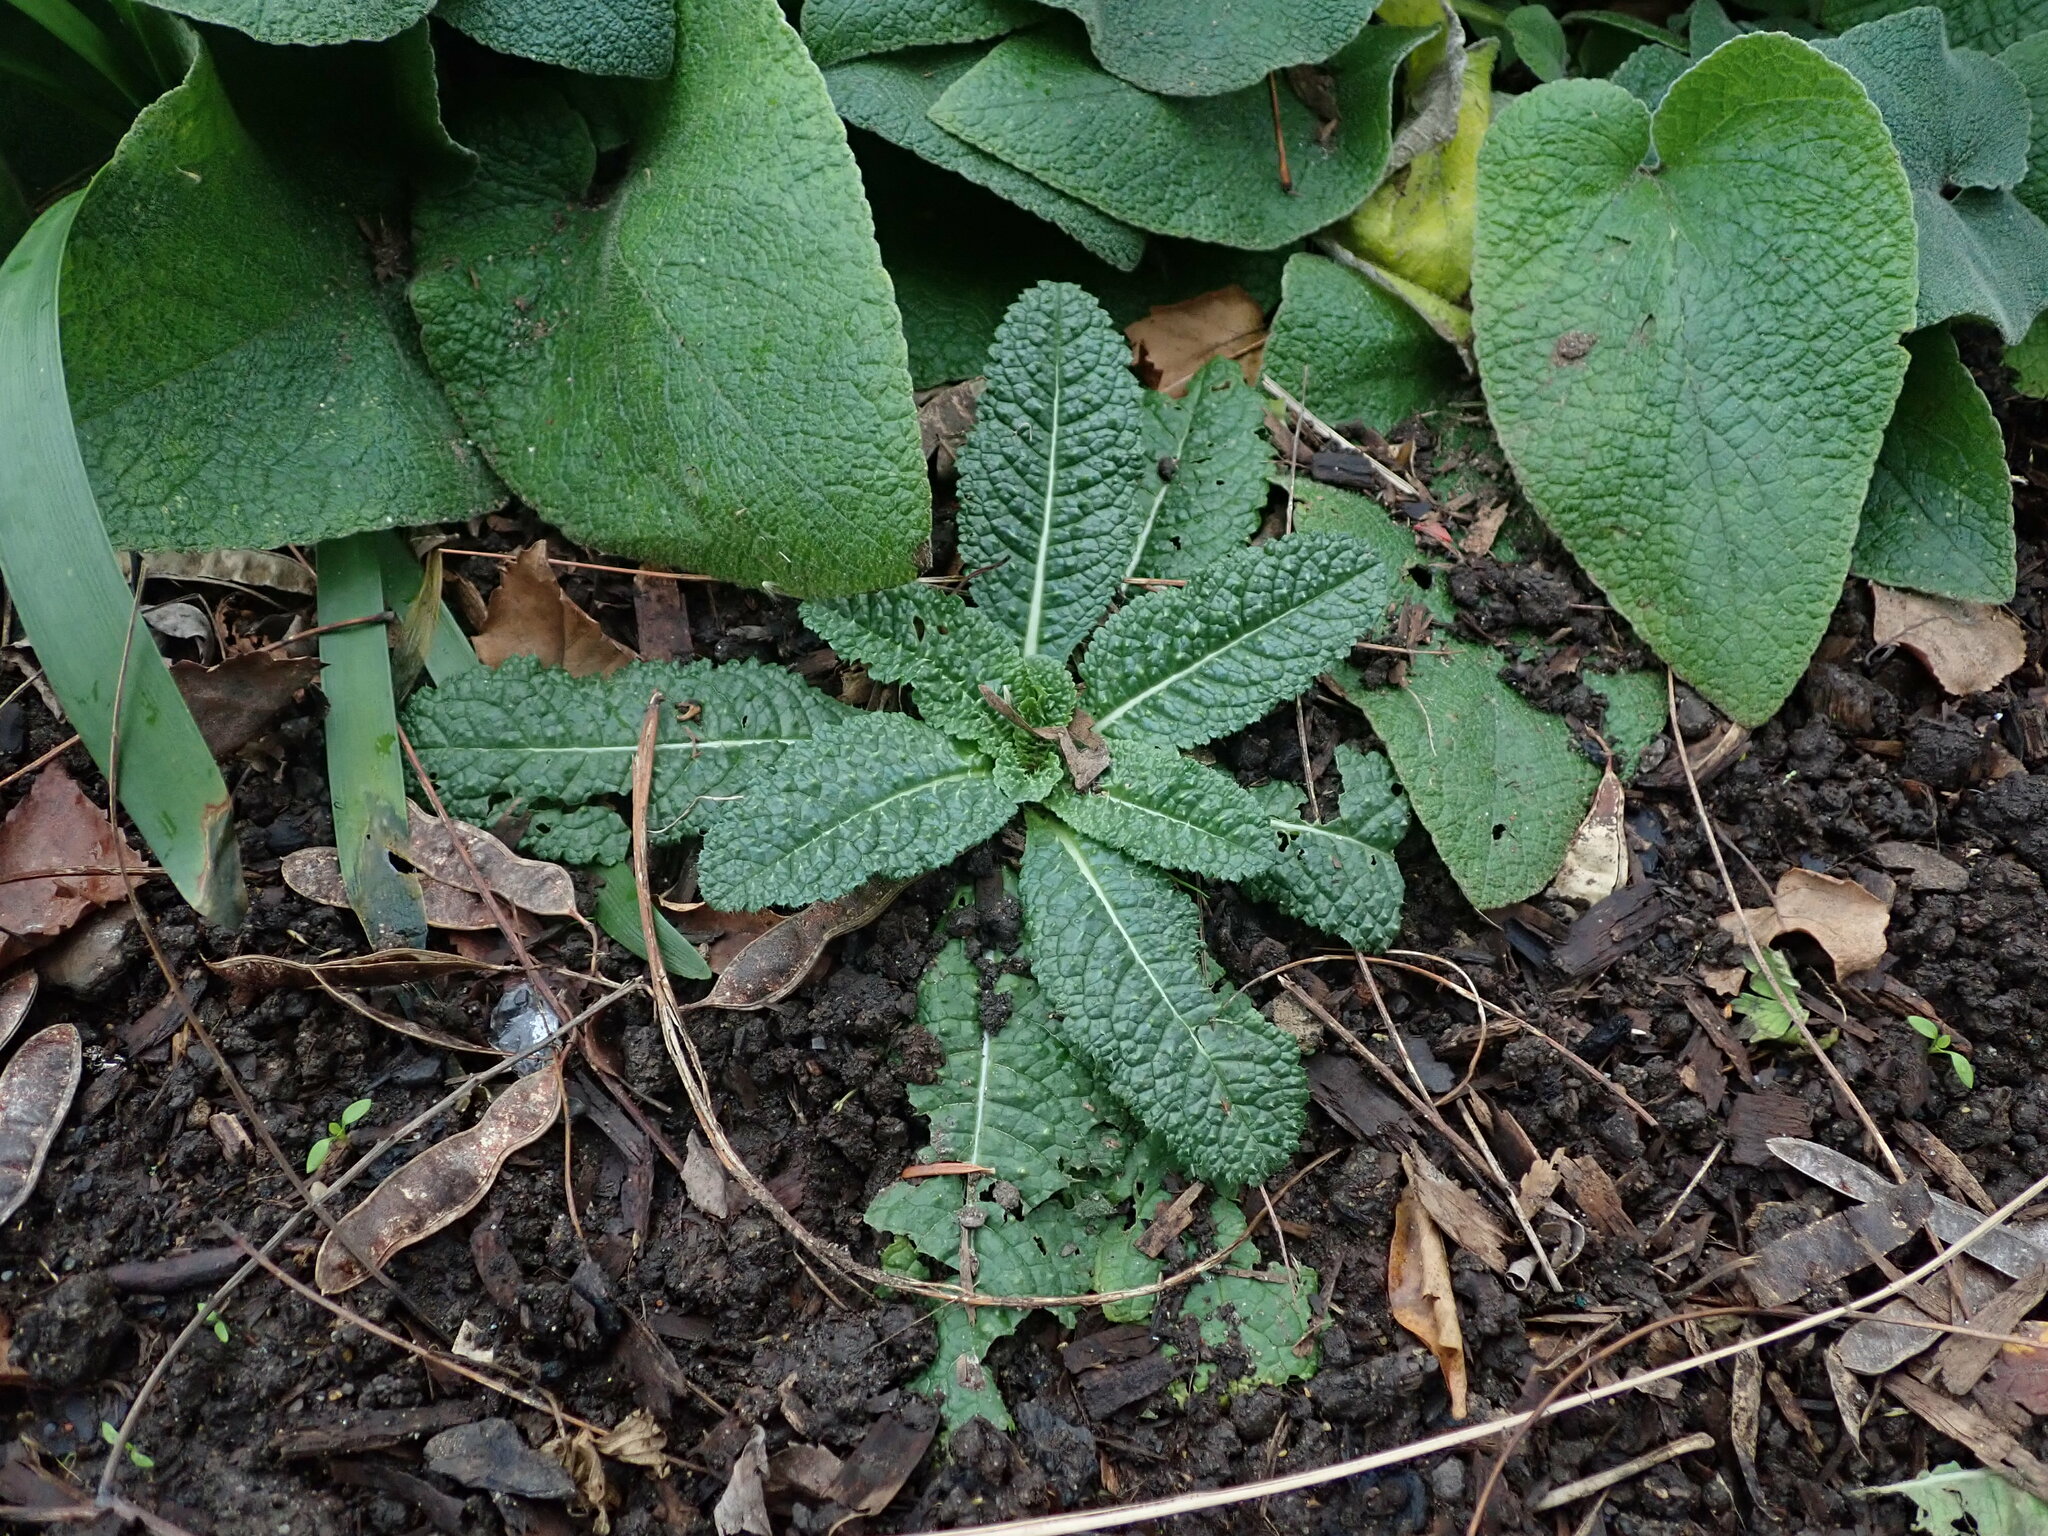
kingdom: Plantae
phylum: Tracheophyta
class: Magnoliopsida
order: Dipsacales
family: Caprifoliaceae
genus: Dipsacus
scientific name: Dipsacus fullonum
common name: Teasel
